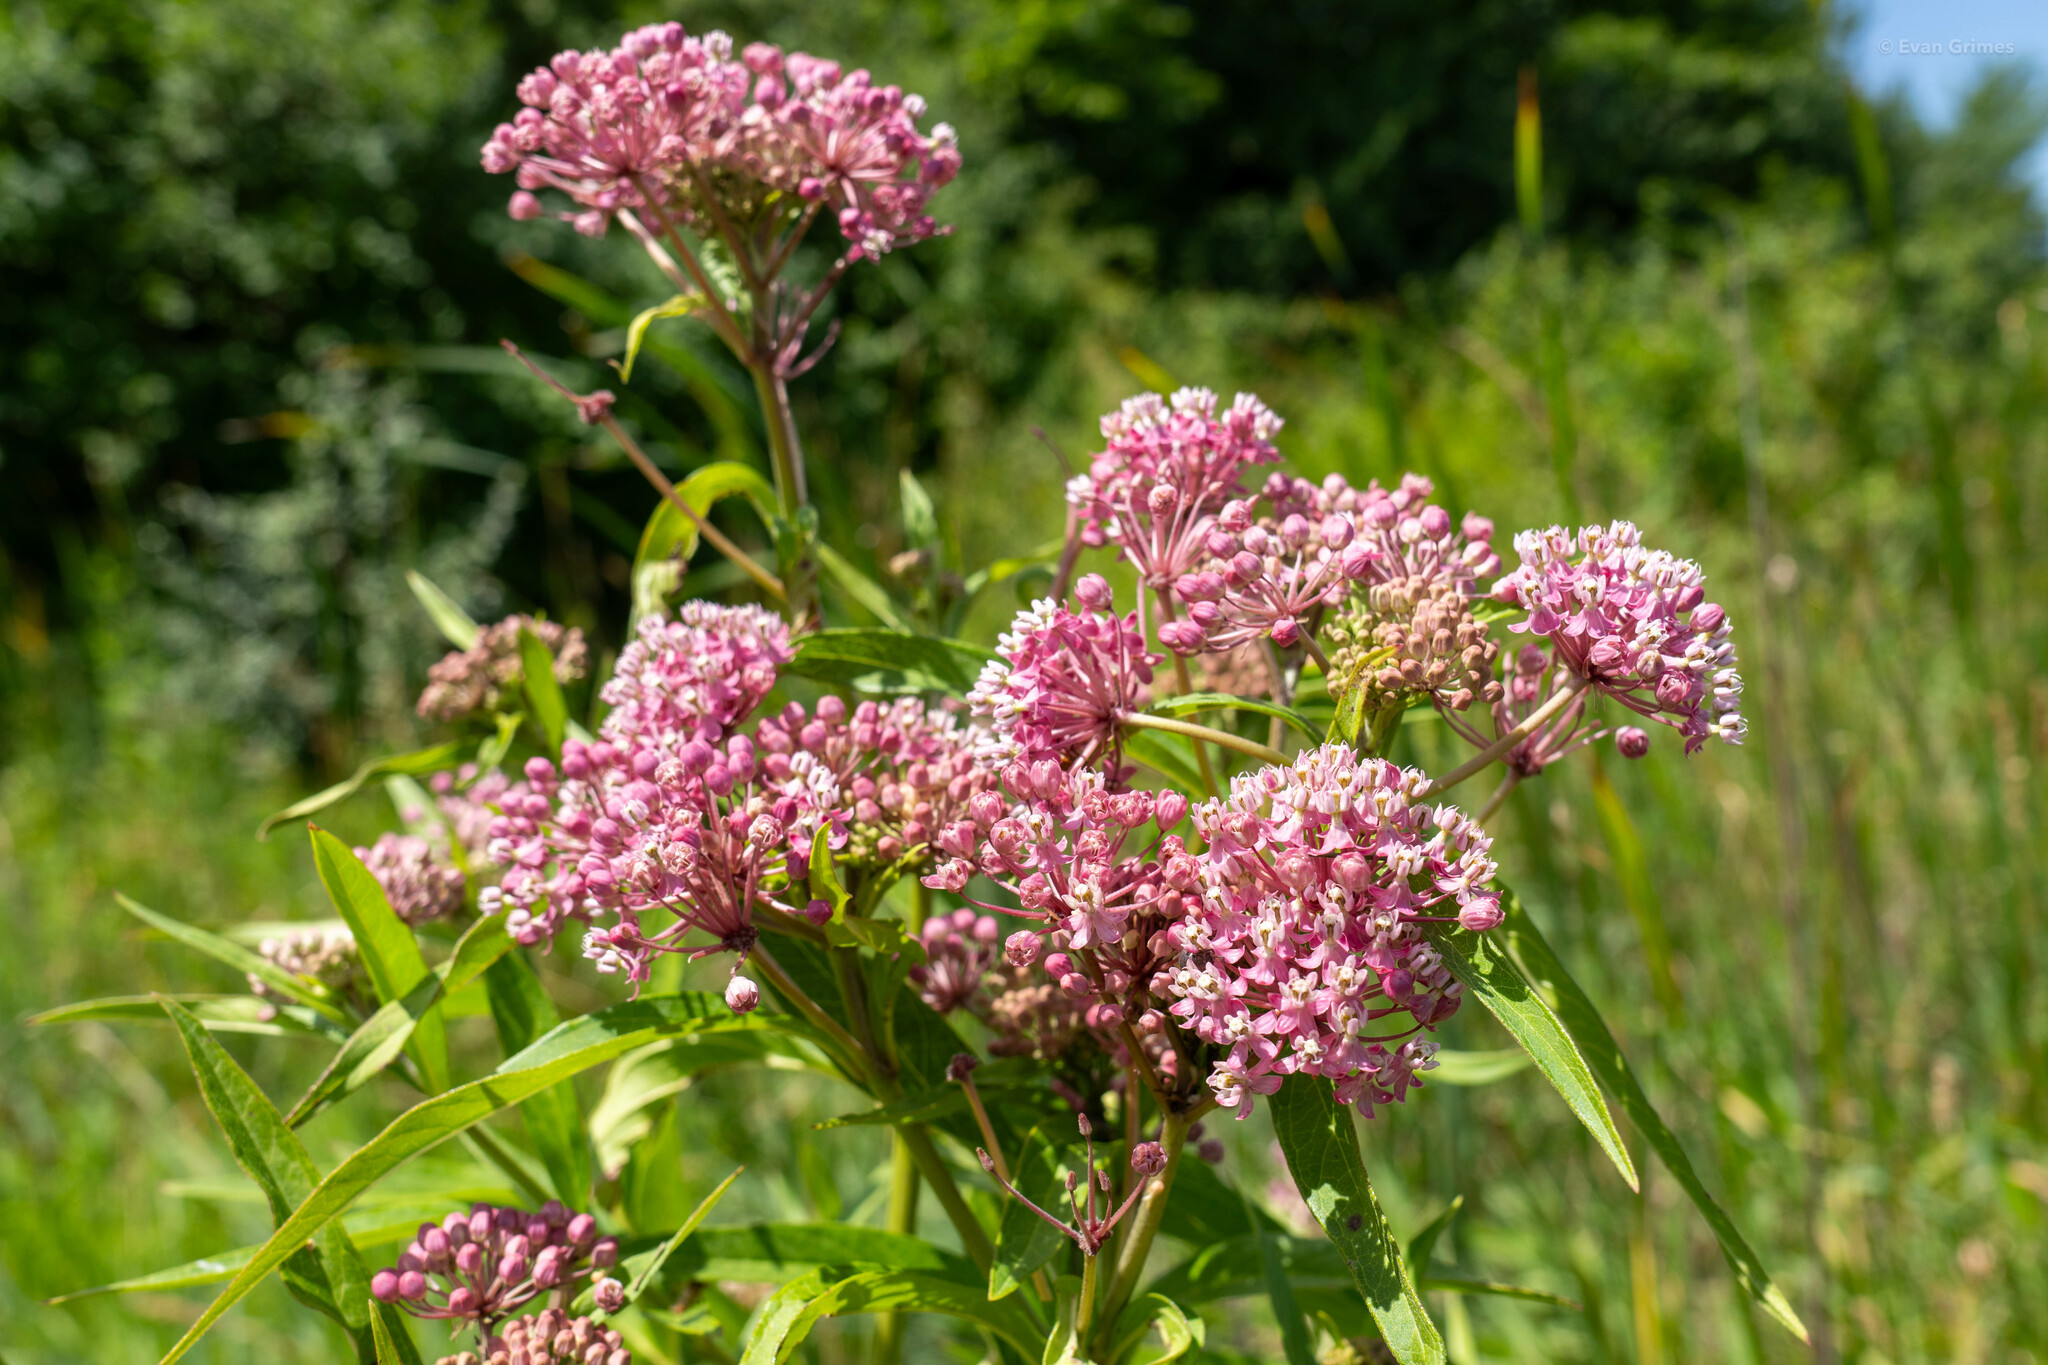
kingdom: Plantae
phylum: Tracheophyta
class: Magnoliopsida
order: Gentianales
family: Apocynaceae
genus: Asclepias
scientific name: Asclepias incarnata
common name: Swamp milkweed
